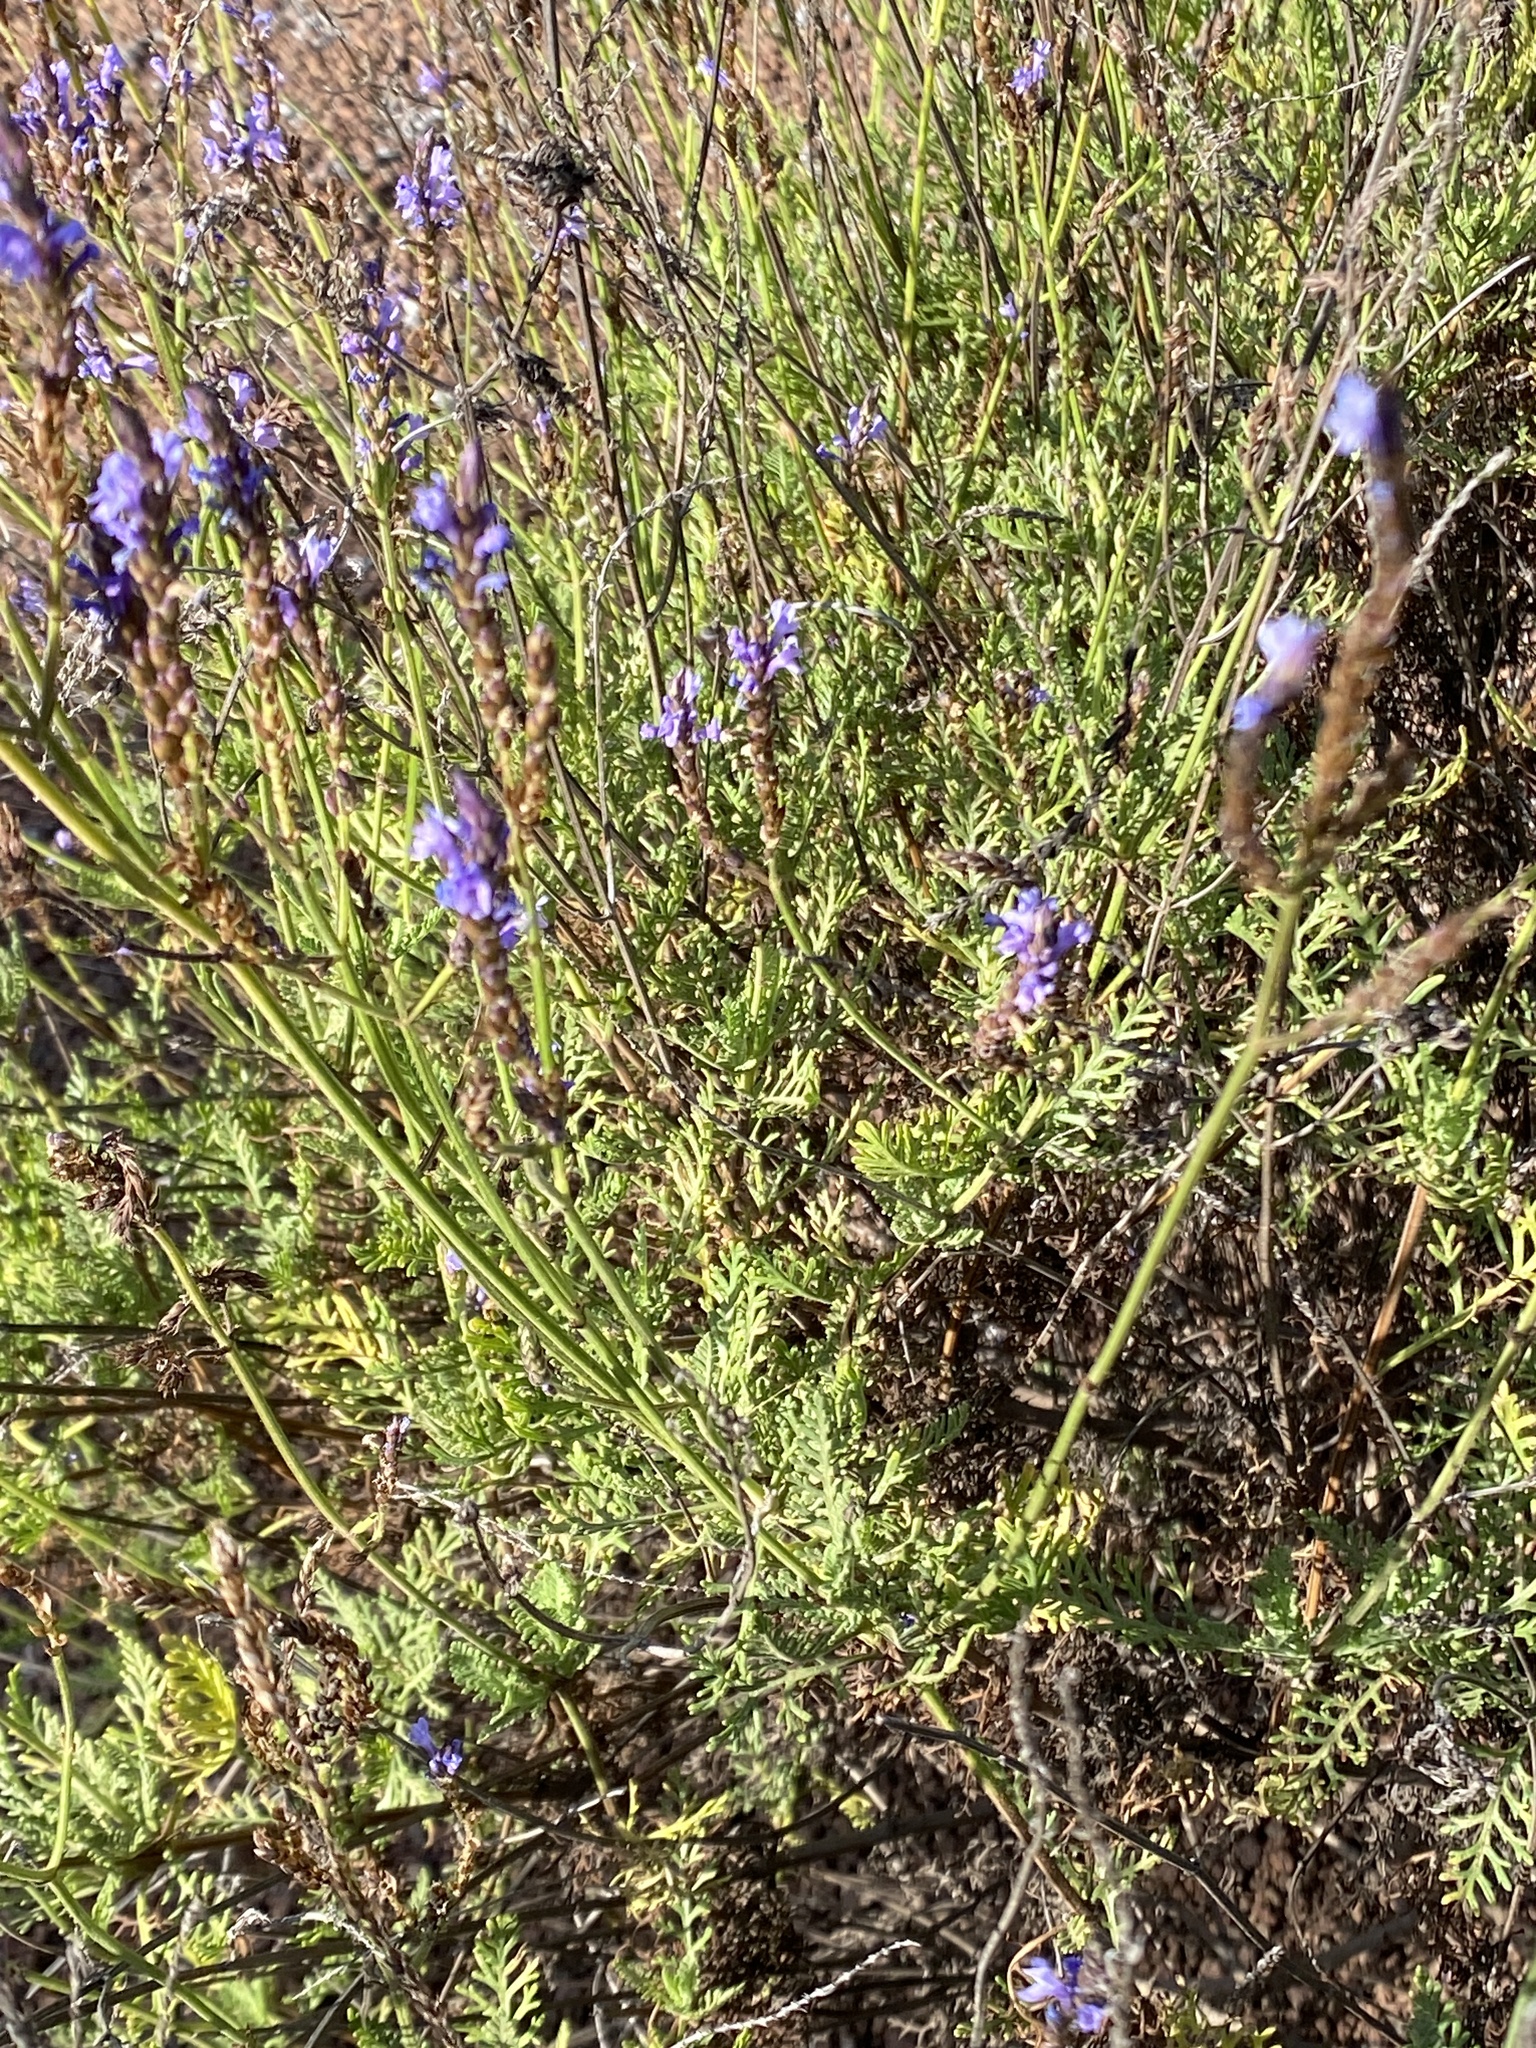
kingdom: Plantae
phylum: Tracheophyta
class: Magnoliopsida
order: Lamiales
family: Lamiaceae
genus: Lavandula
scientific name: Lavandula canariensis
